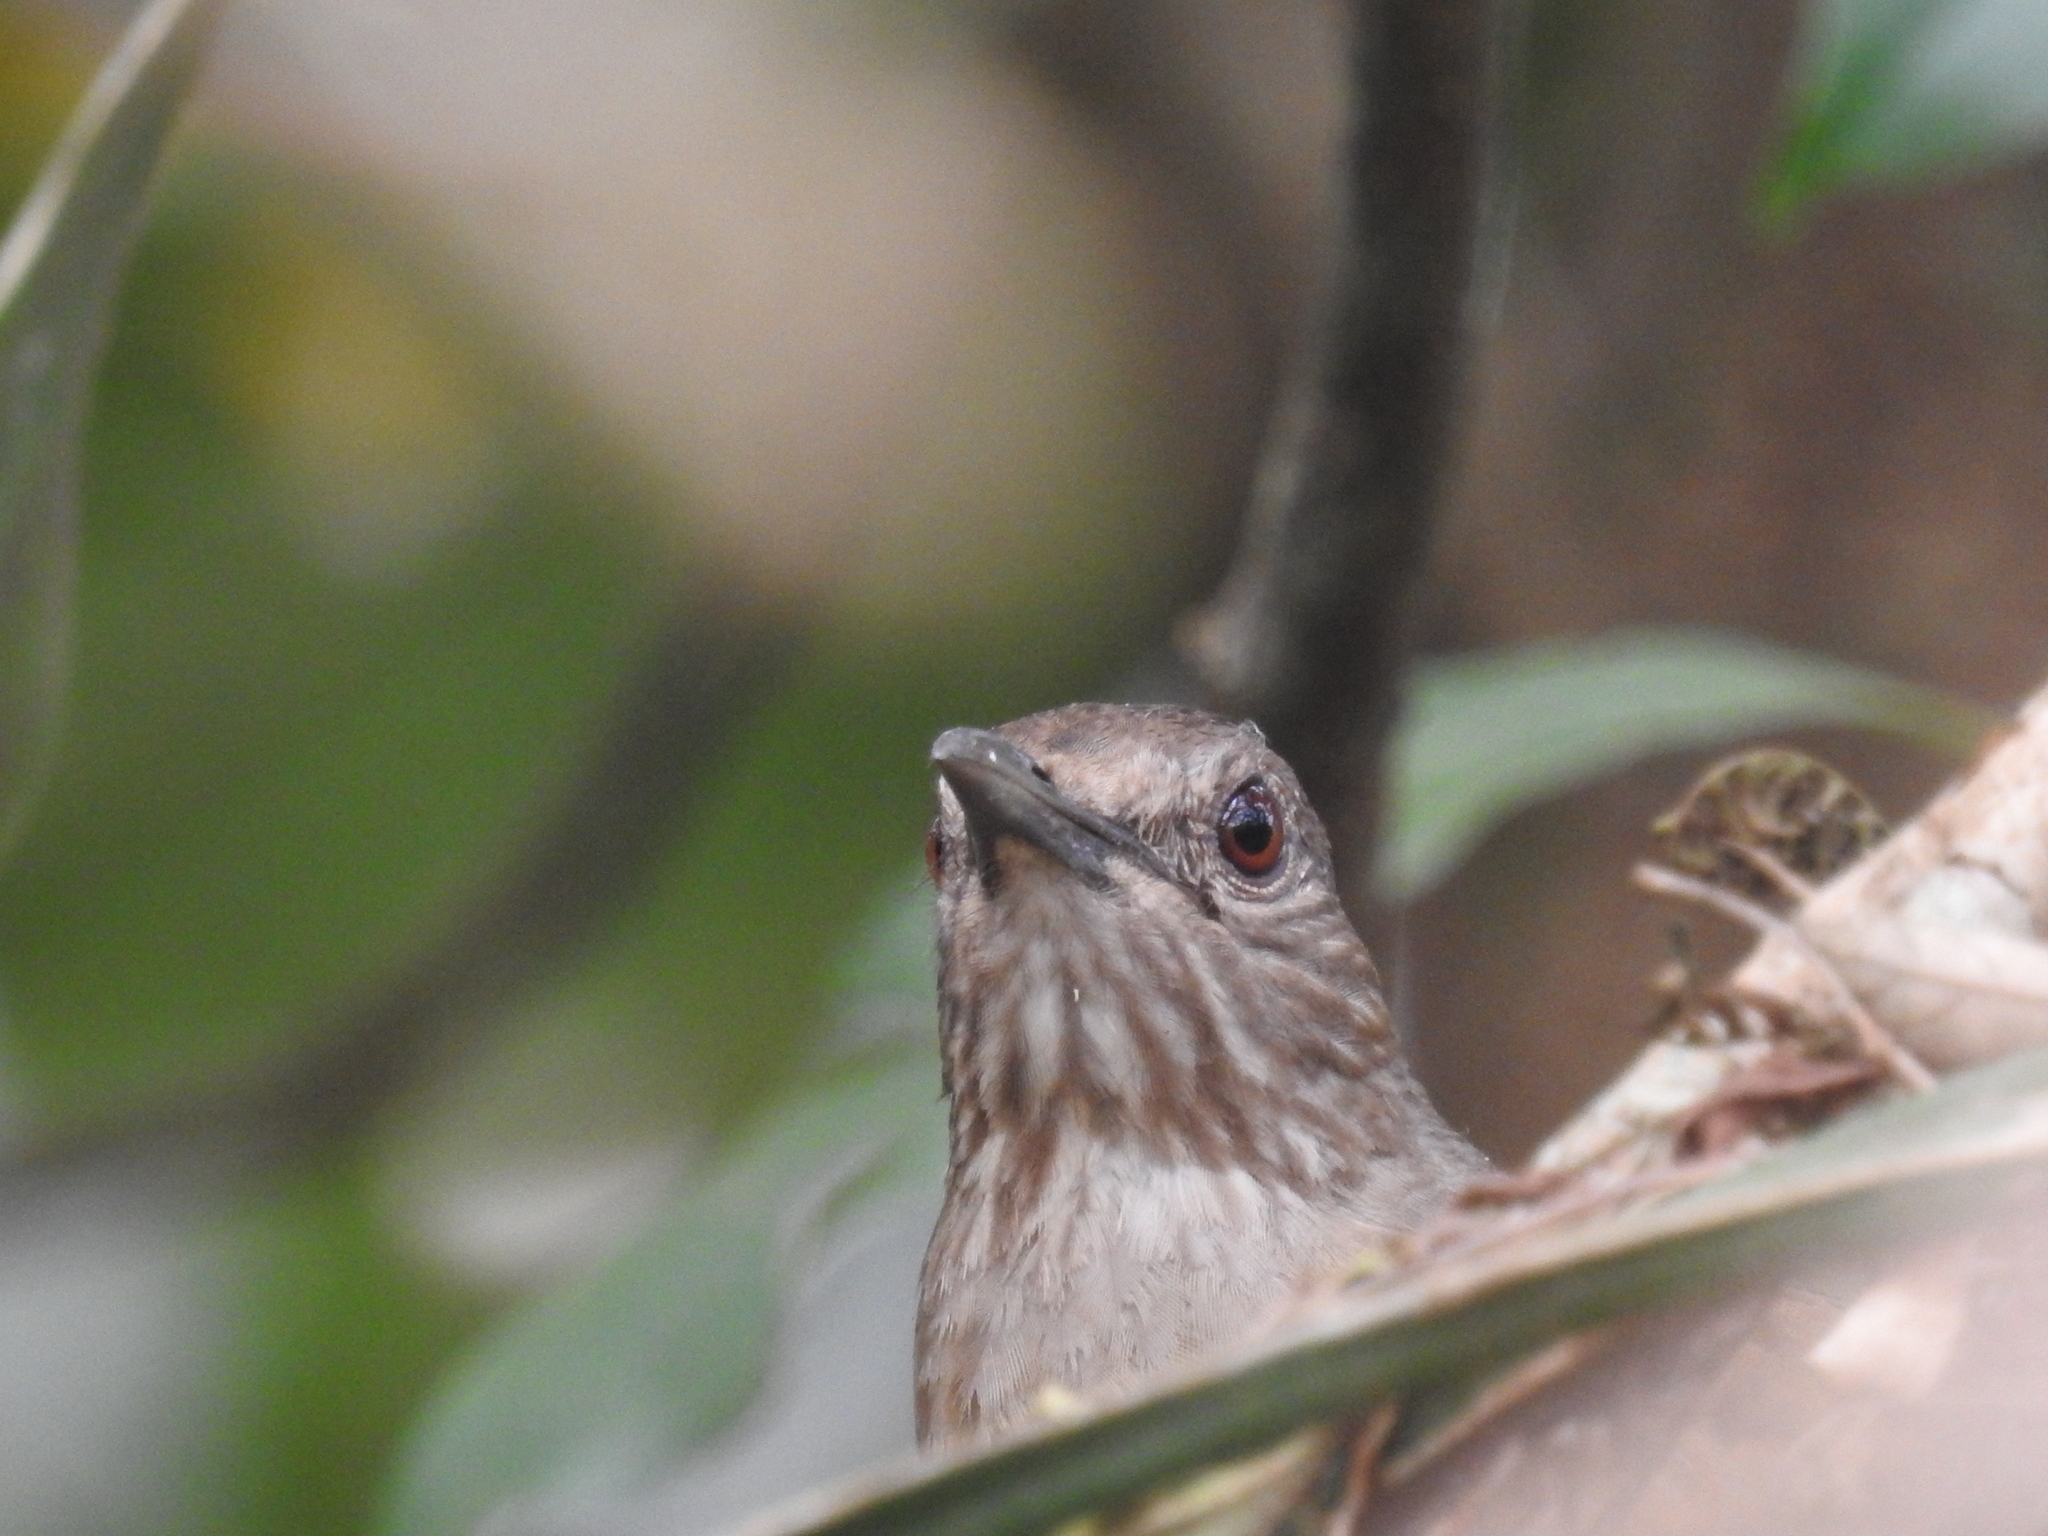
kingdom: Animalia
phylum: Chordata
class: Aves
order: Passeriformes
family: Turdidae
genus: Turdus
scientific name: Turdus leucomelas
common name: Pale-breasted thrush
